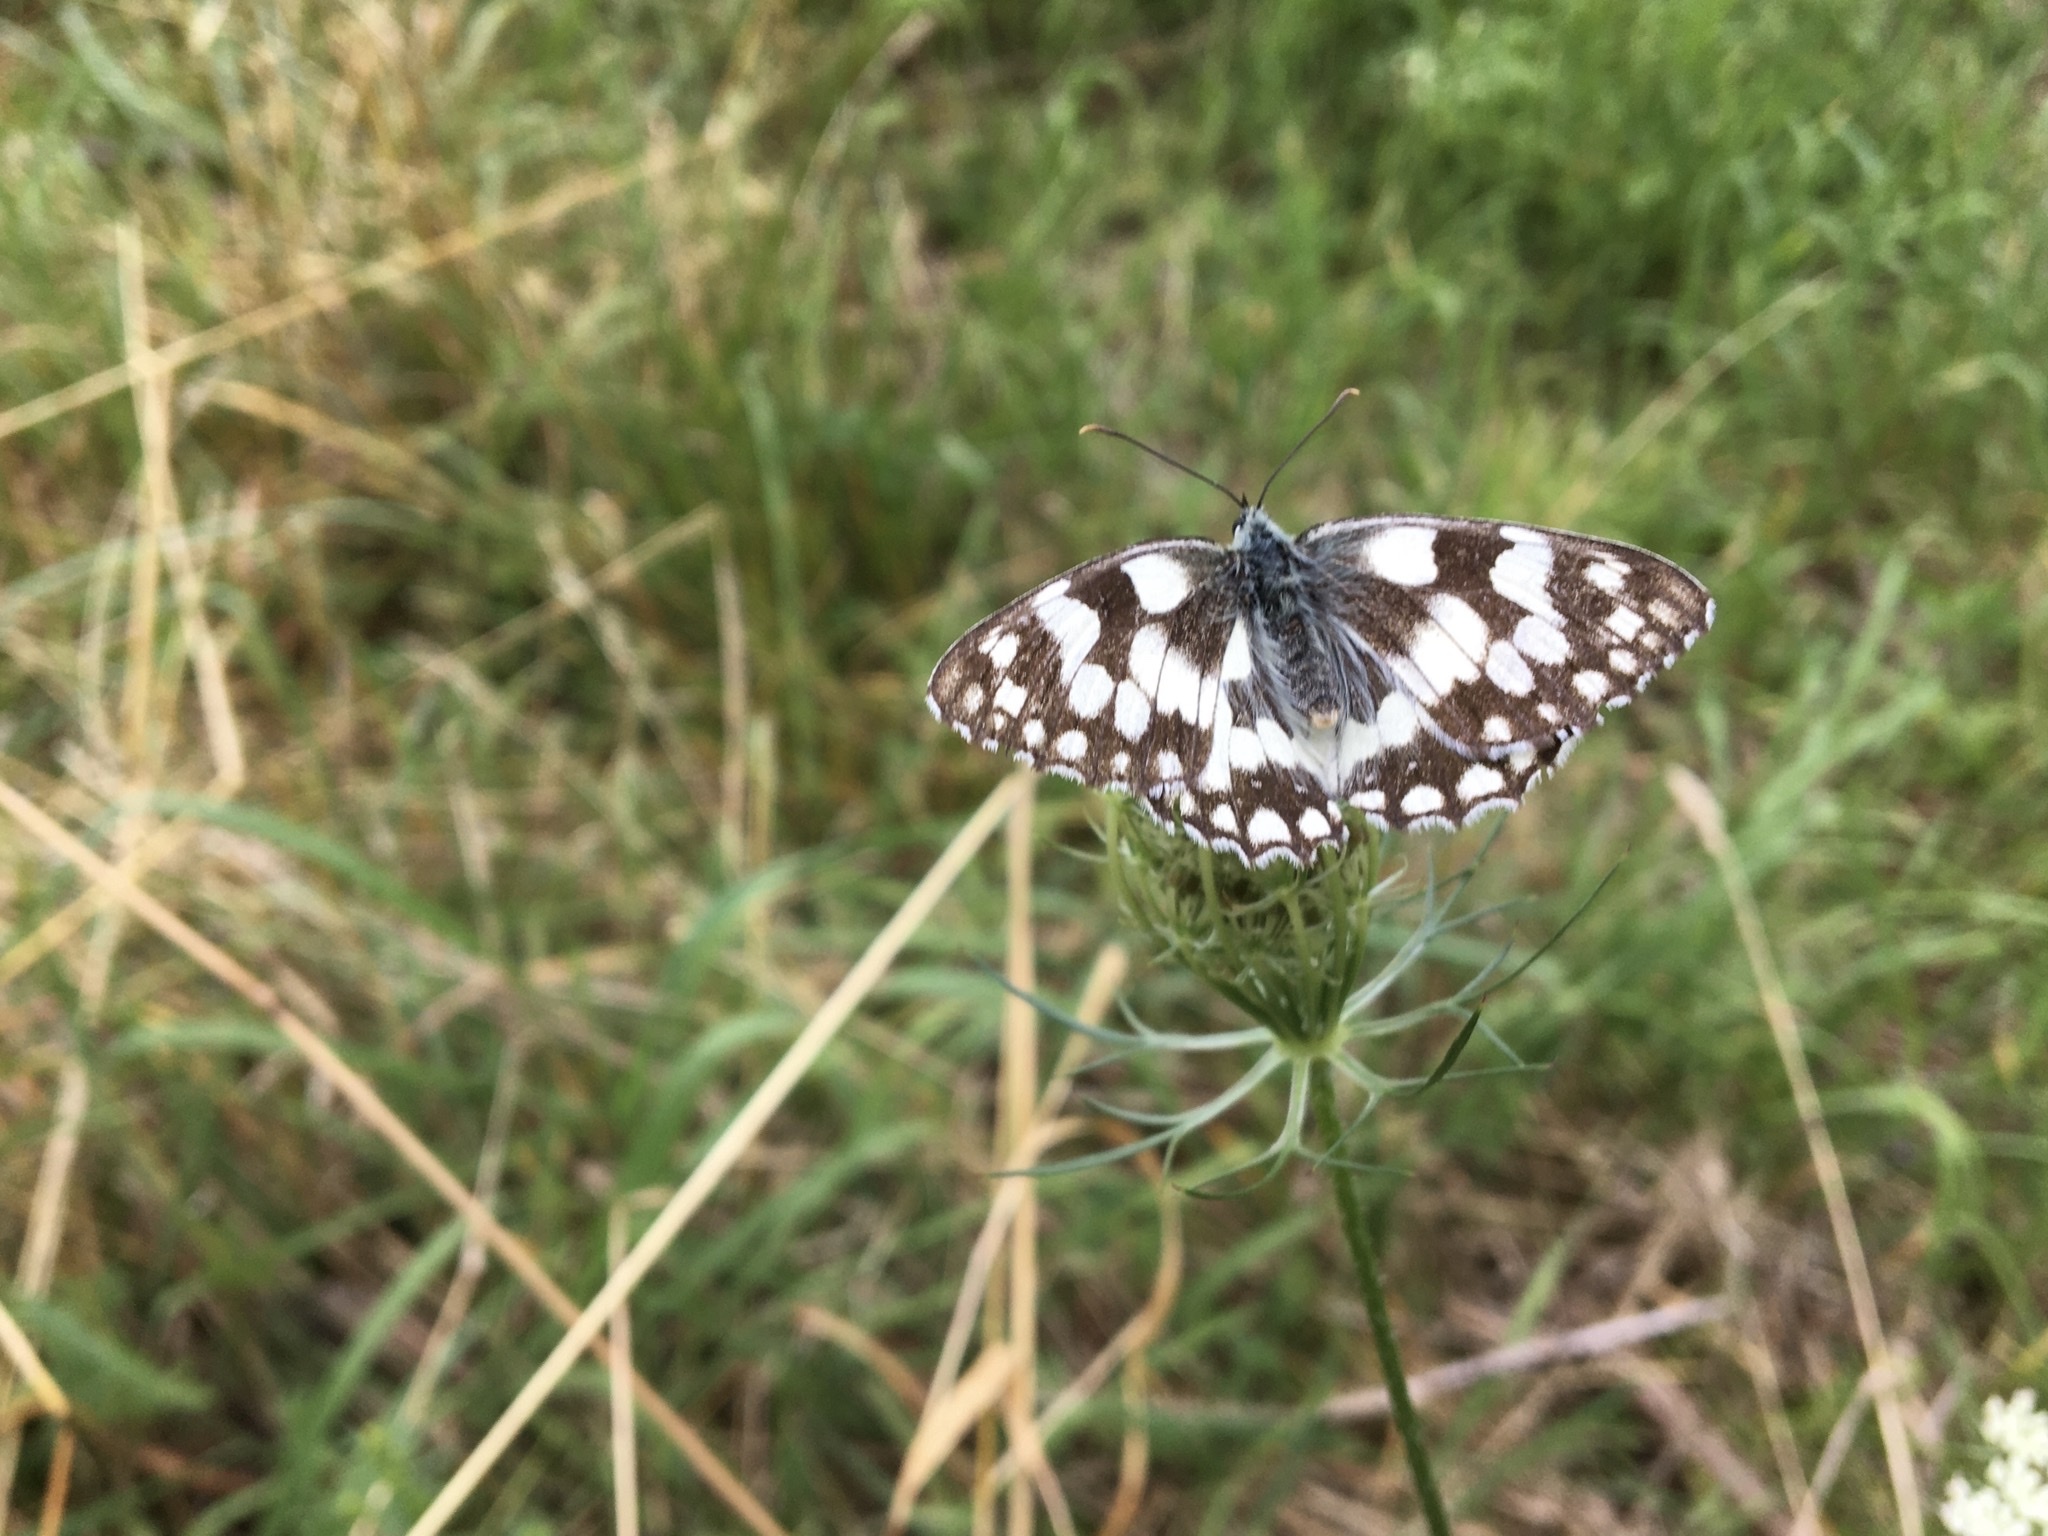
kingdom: Animalia
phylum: Arthropoda
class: Insecta
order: Lepidoptera
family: Nymphalidae
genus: Melanargia
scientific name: Melanargia galathea
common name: Marbled white
